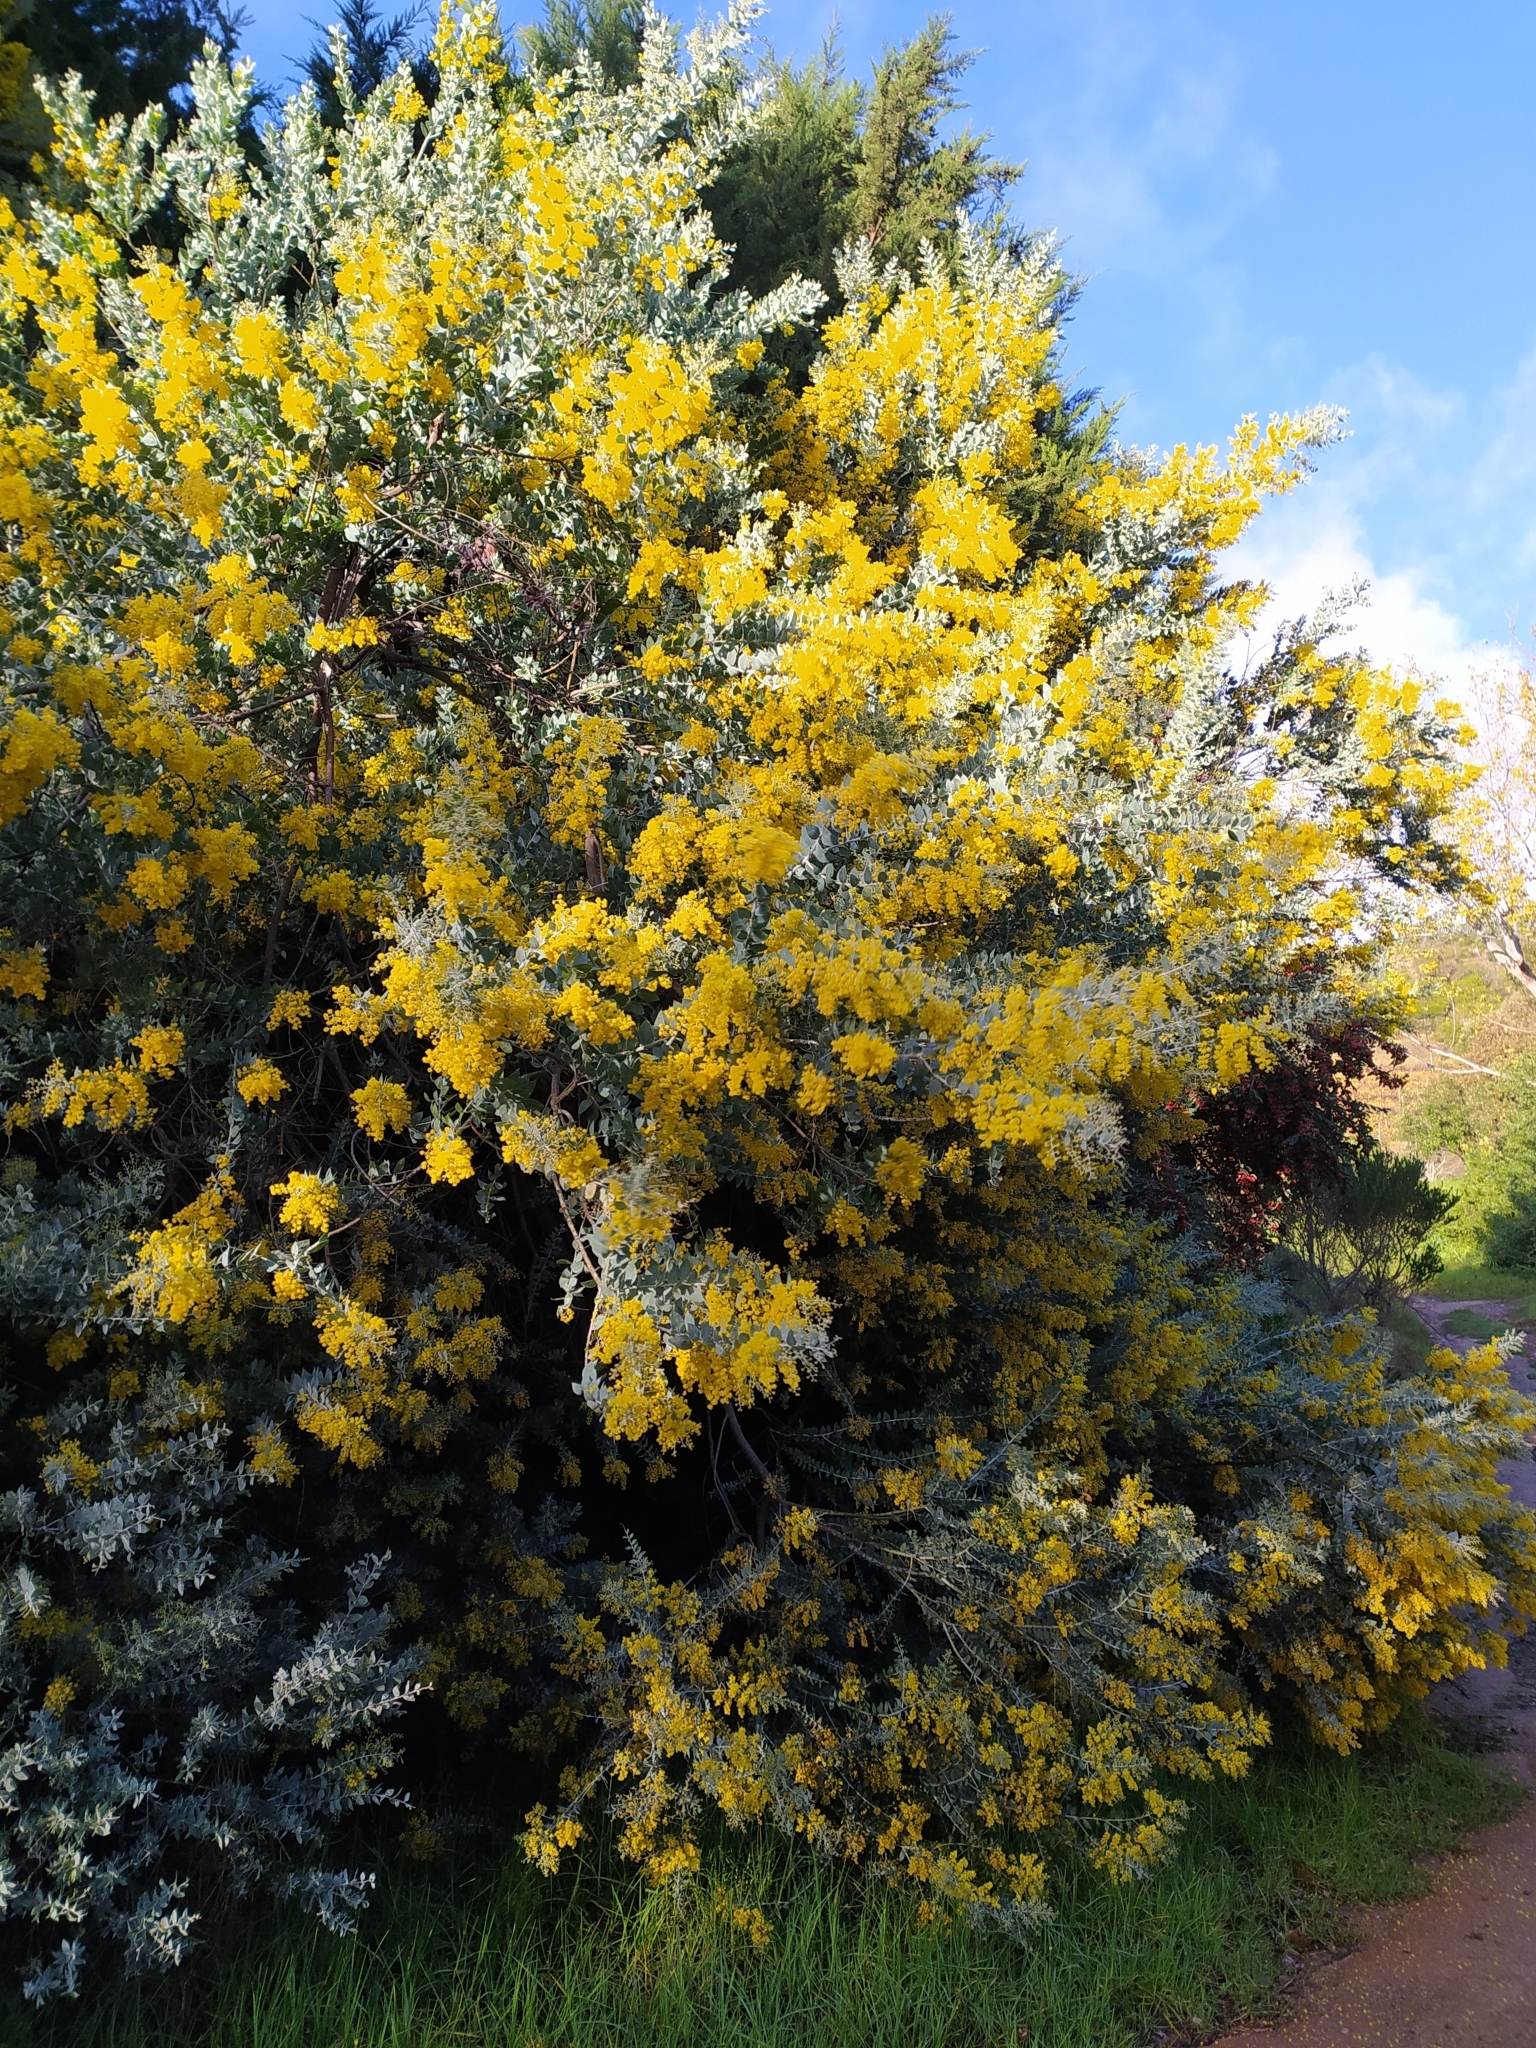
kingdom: Plantae
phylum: Tracheophyta
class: Magnoliopsida
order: Fabales
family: Fabaceae
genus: Acacia
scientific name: Acacia podalyriifolia
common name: Pearl wattle
